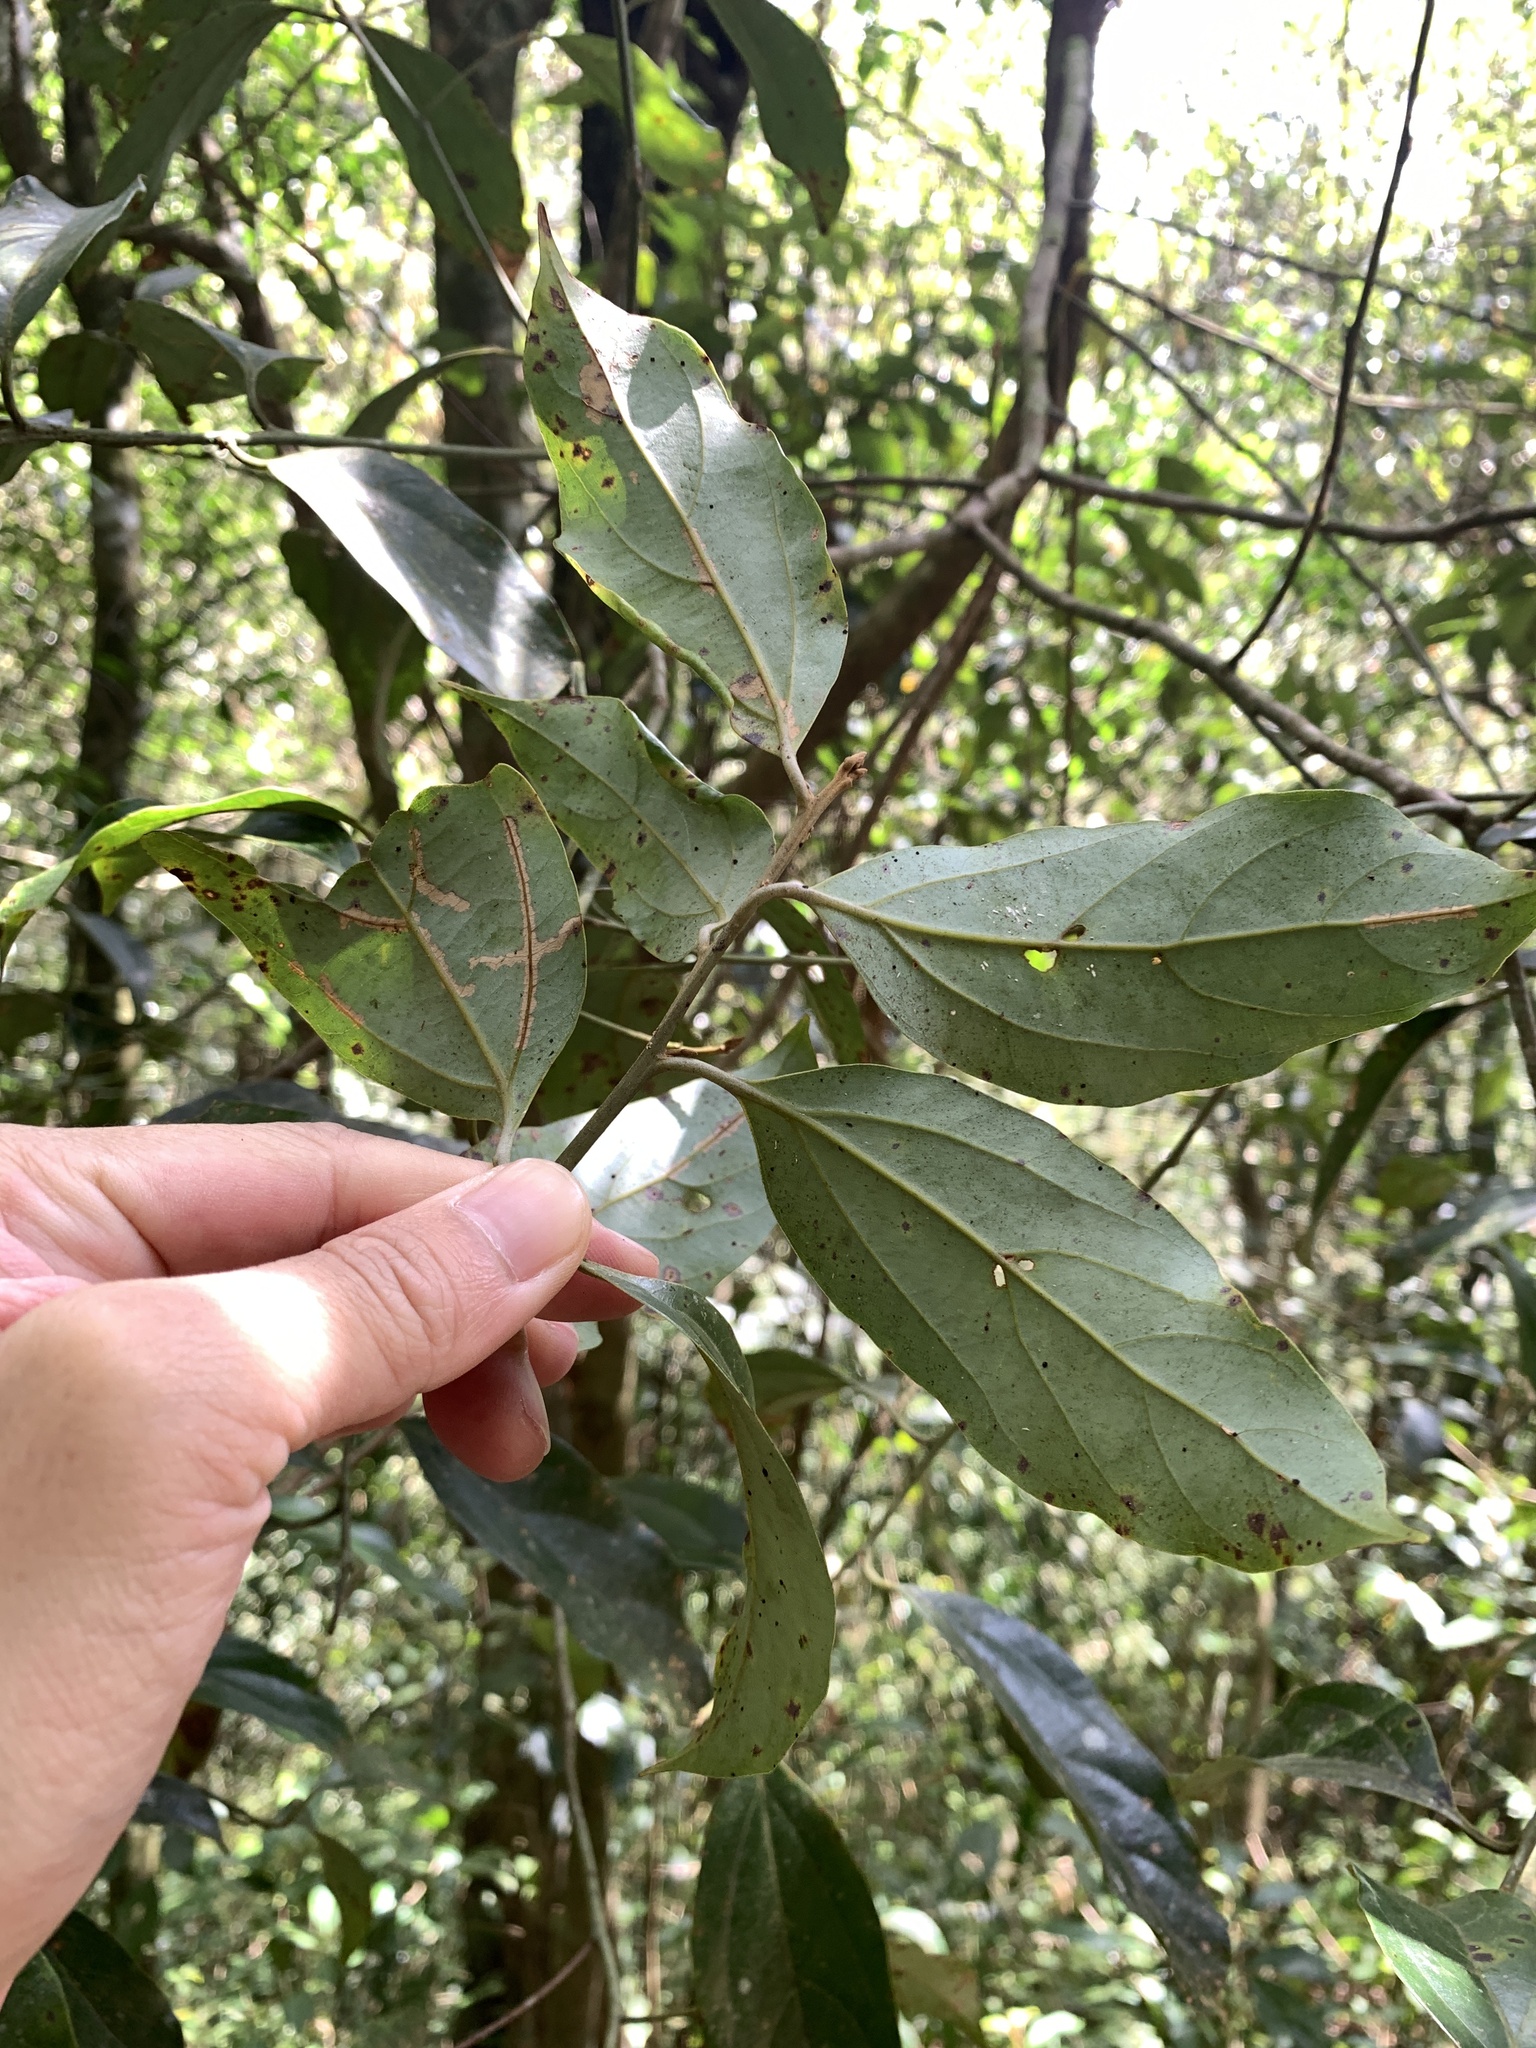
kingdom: Plantae
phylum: Tracheophyta
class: Magnoliopsida
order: Laurales
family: Lauraceae
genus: Cryptocarya
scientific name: Cryptocarya chinensis
